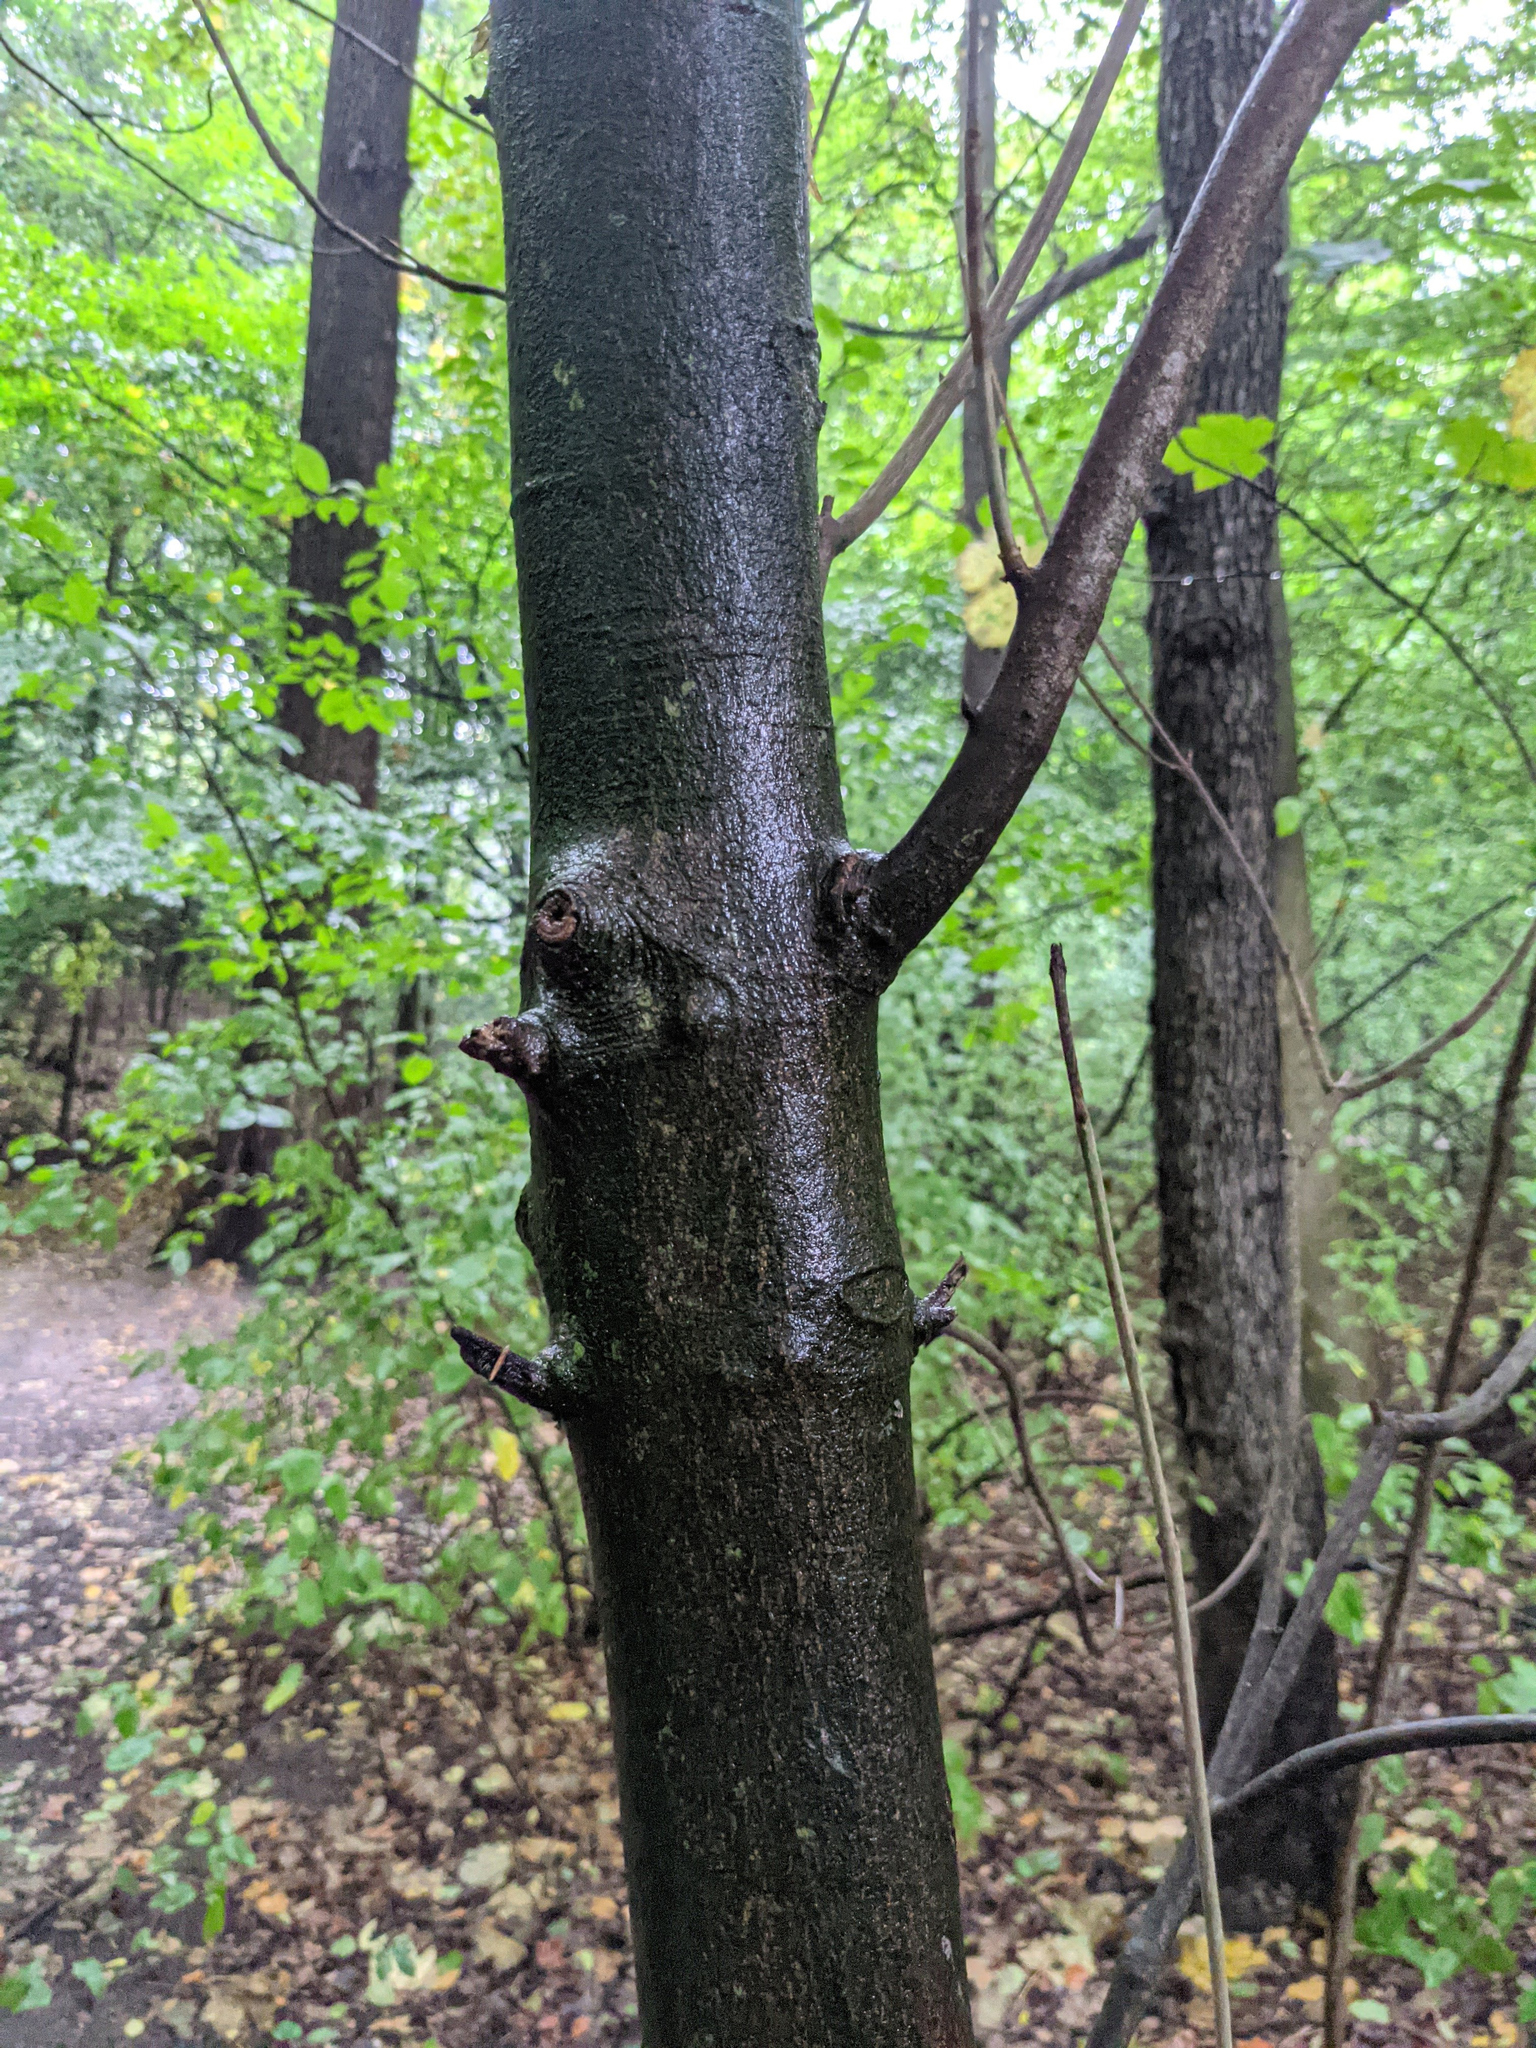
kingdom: Plantae
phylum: Tracheophyta
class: Magnoliopsida
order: Sapindales
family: Sapindaceae
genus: Acer
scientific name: Acer pseudoplatanus
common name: Sycamore
